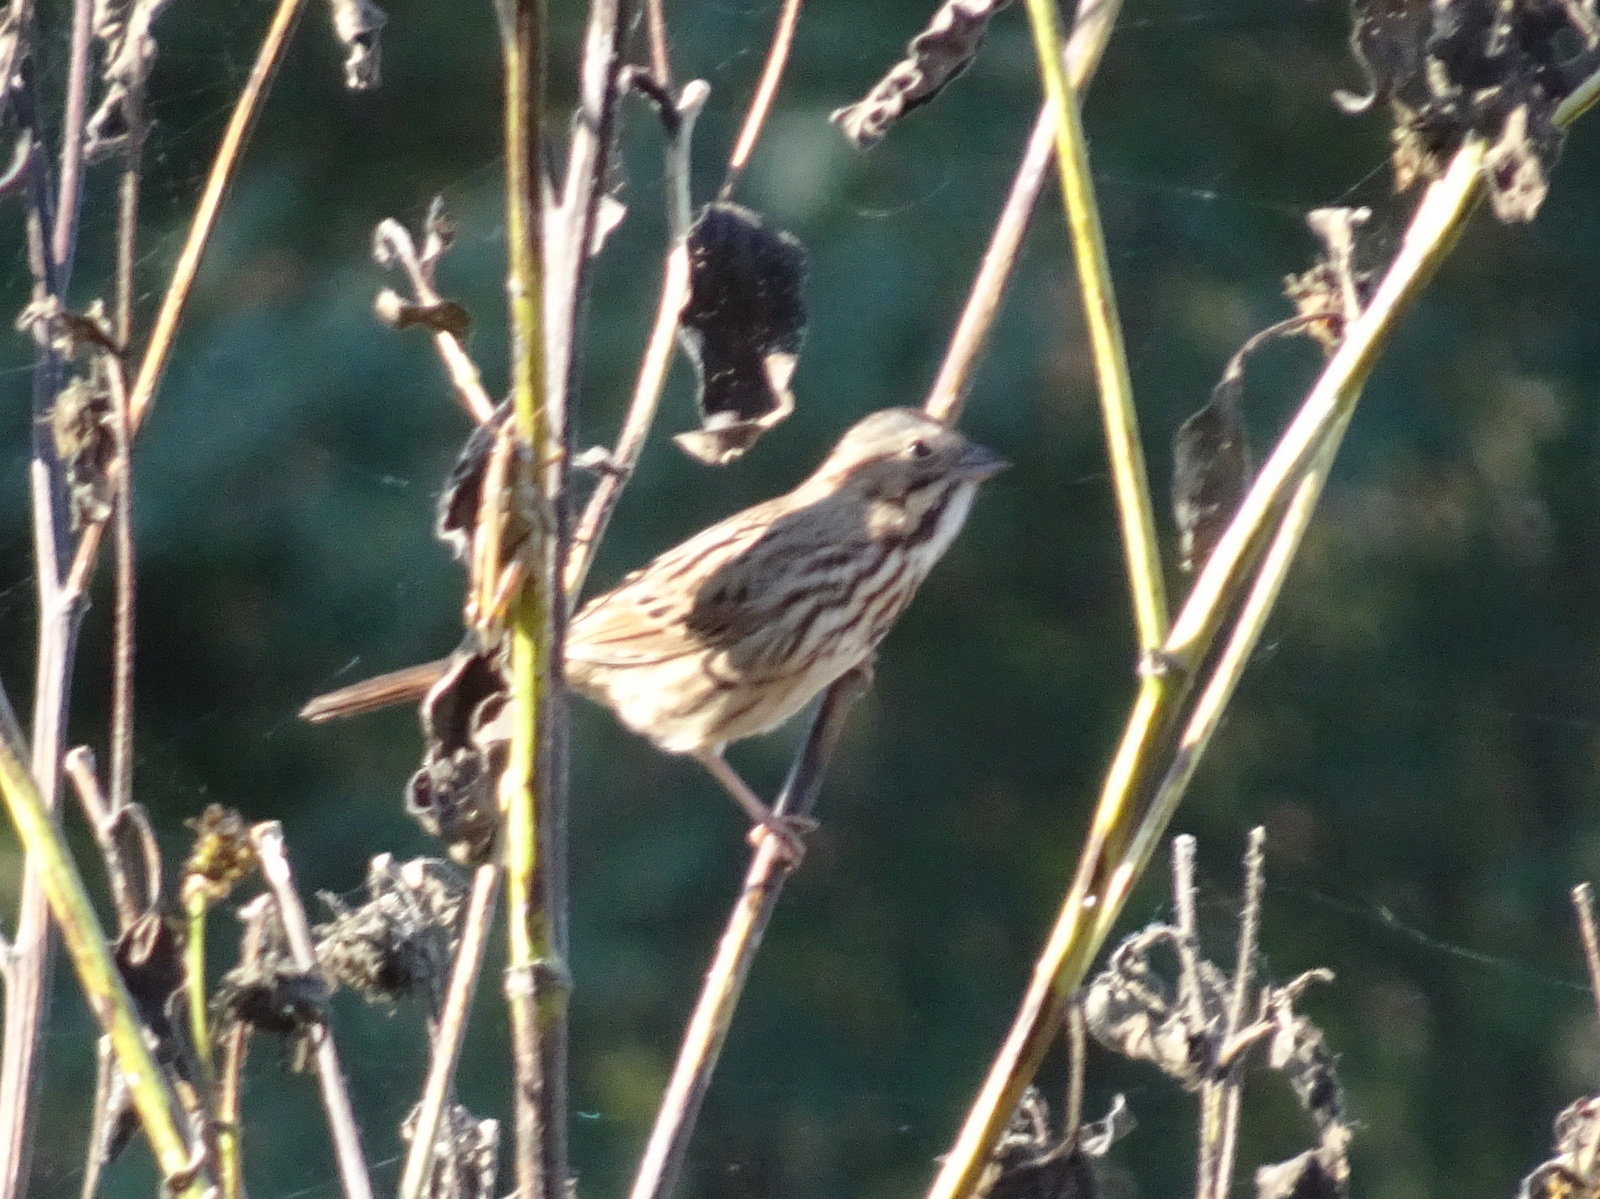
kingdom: Animalia
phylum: Chordata
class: Aves
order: Passeriformes
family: Passerellidae
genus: Melospiza
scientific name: Melospiza melodia
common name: Song sparrow
